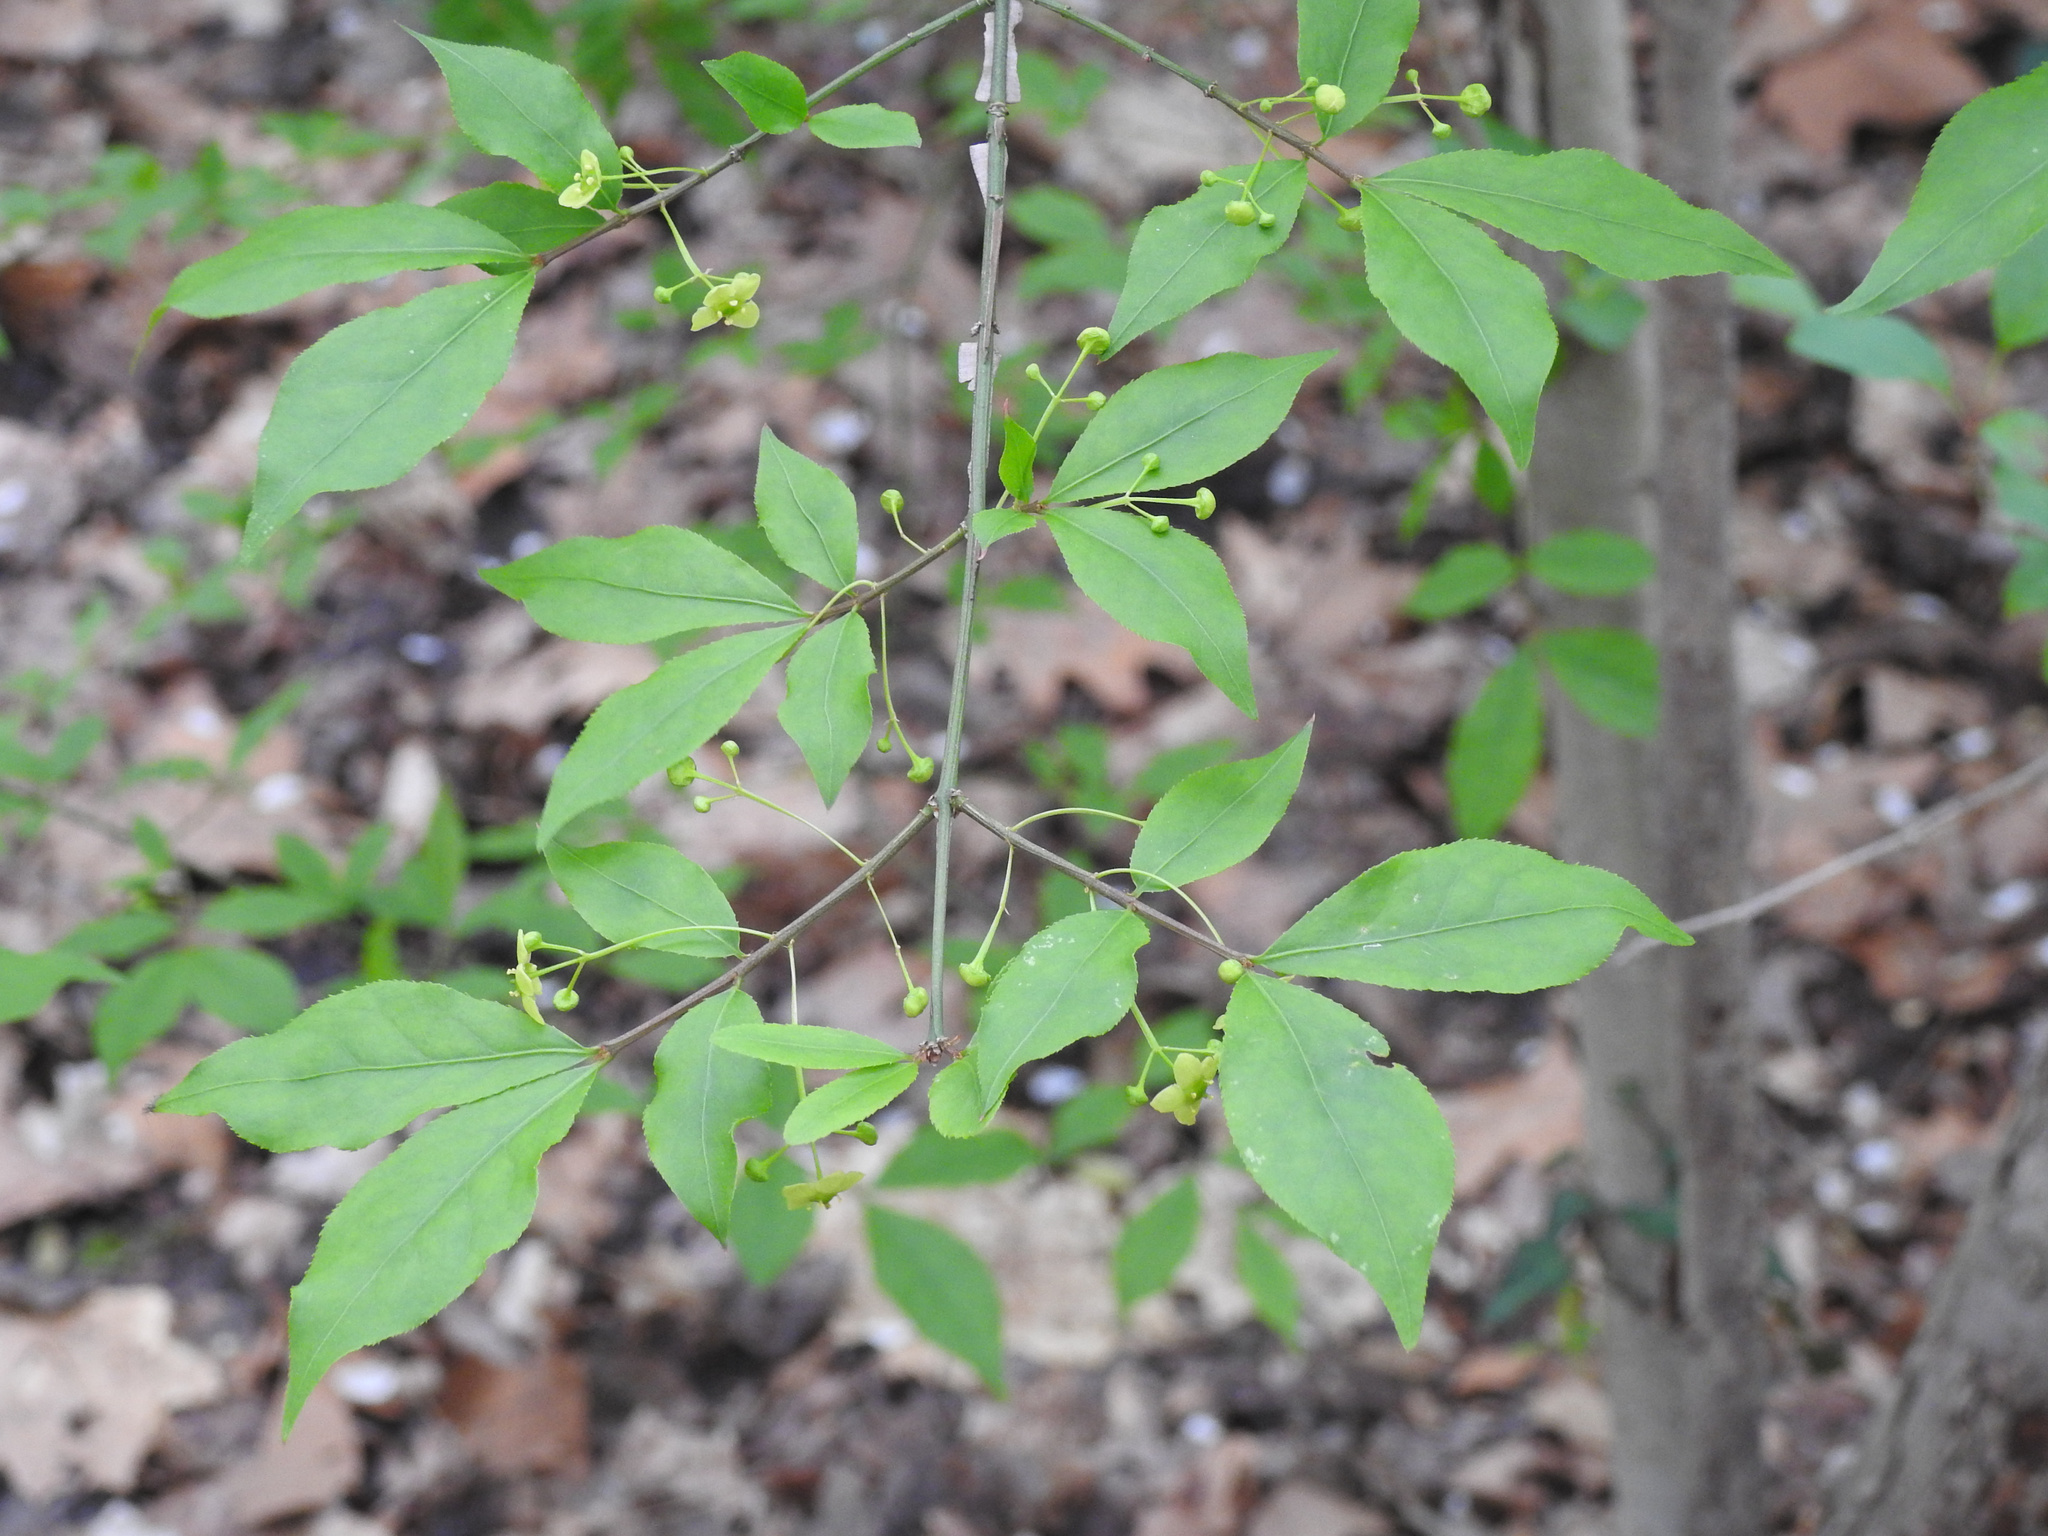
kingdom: Plantae
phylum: Tracheophyta
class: Magnoliopsida
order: Celastrales
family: Celastraceae
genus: Euonymus
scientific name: Euonymus alatus
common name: Winged euonymus
